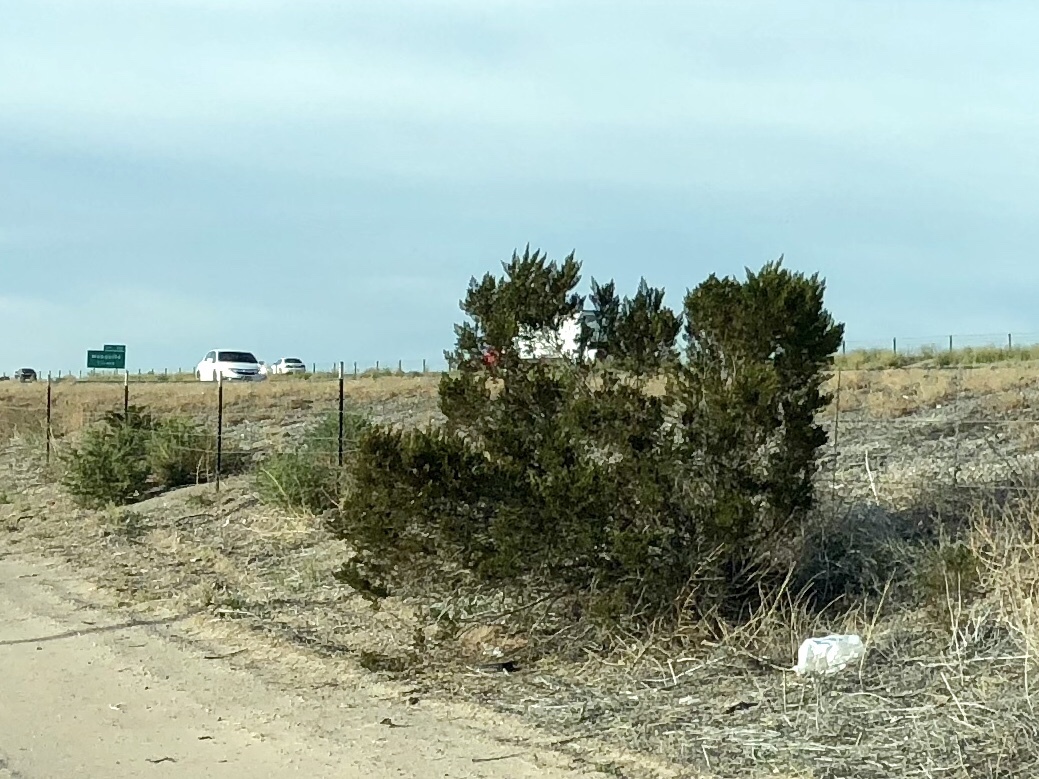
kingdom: Plantae
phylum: Tracheophyta
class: Magnoliopsida
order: Zygophyllales
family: Zygophyllaceae
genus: Larrea
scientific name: Larrea tridentata
